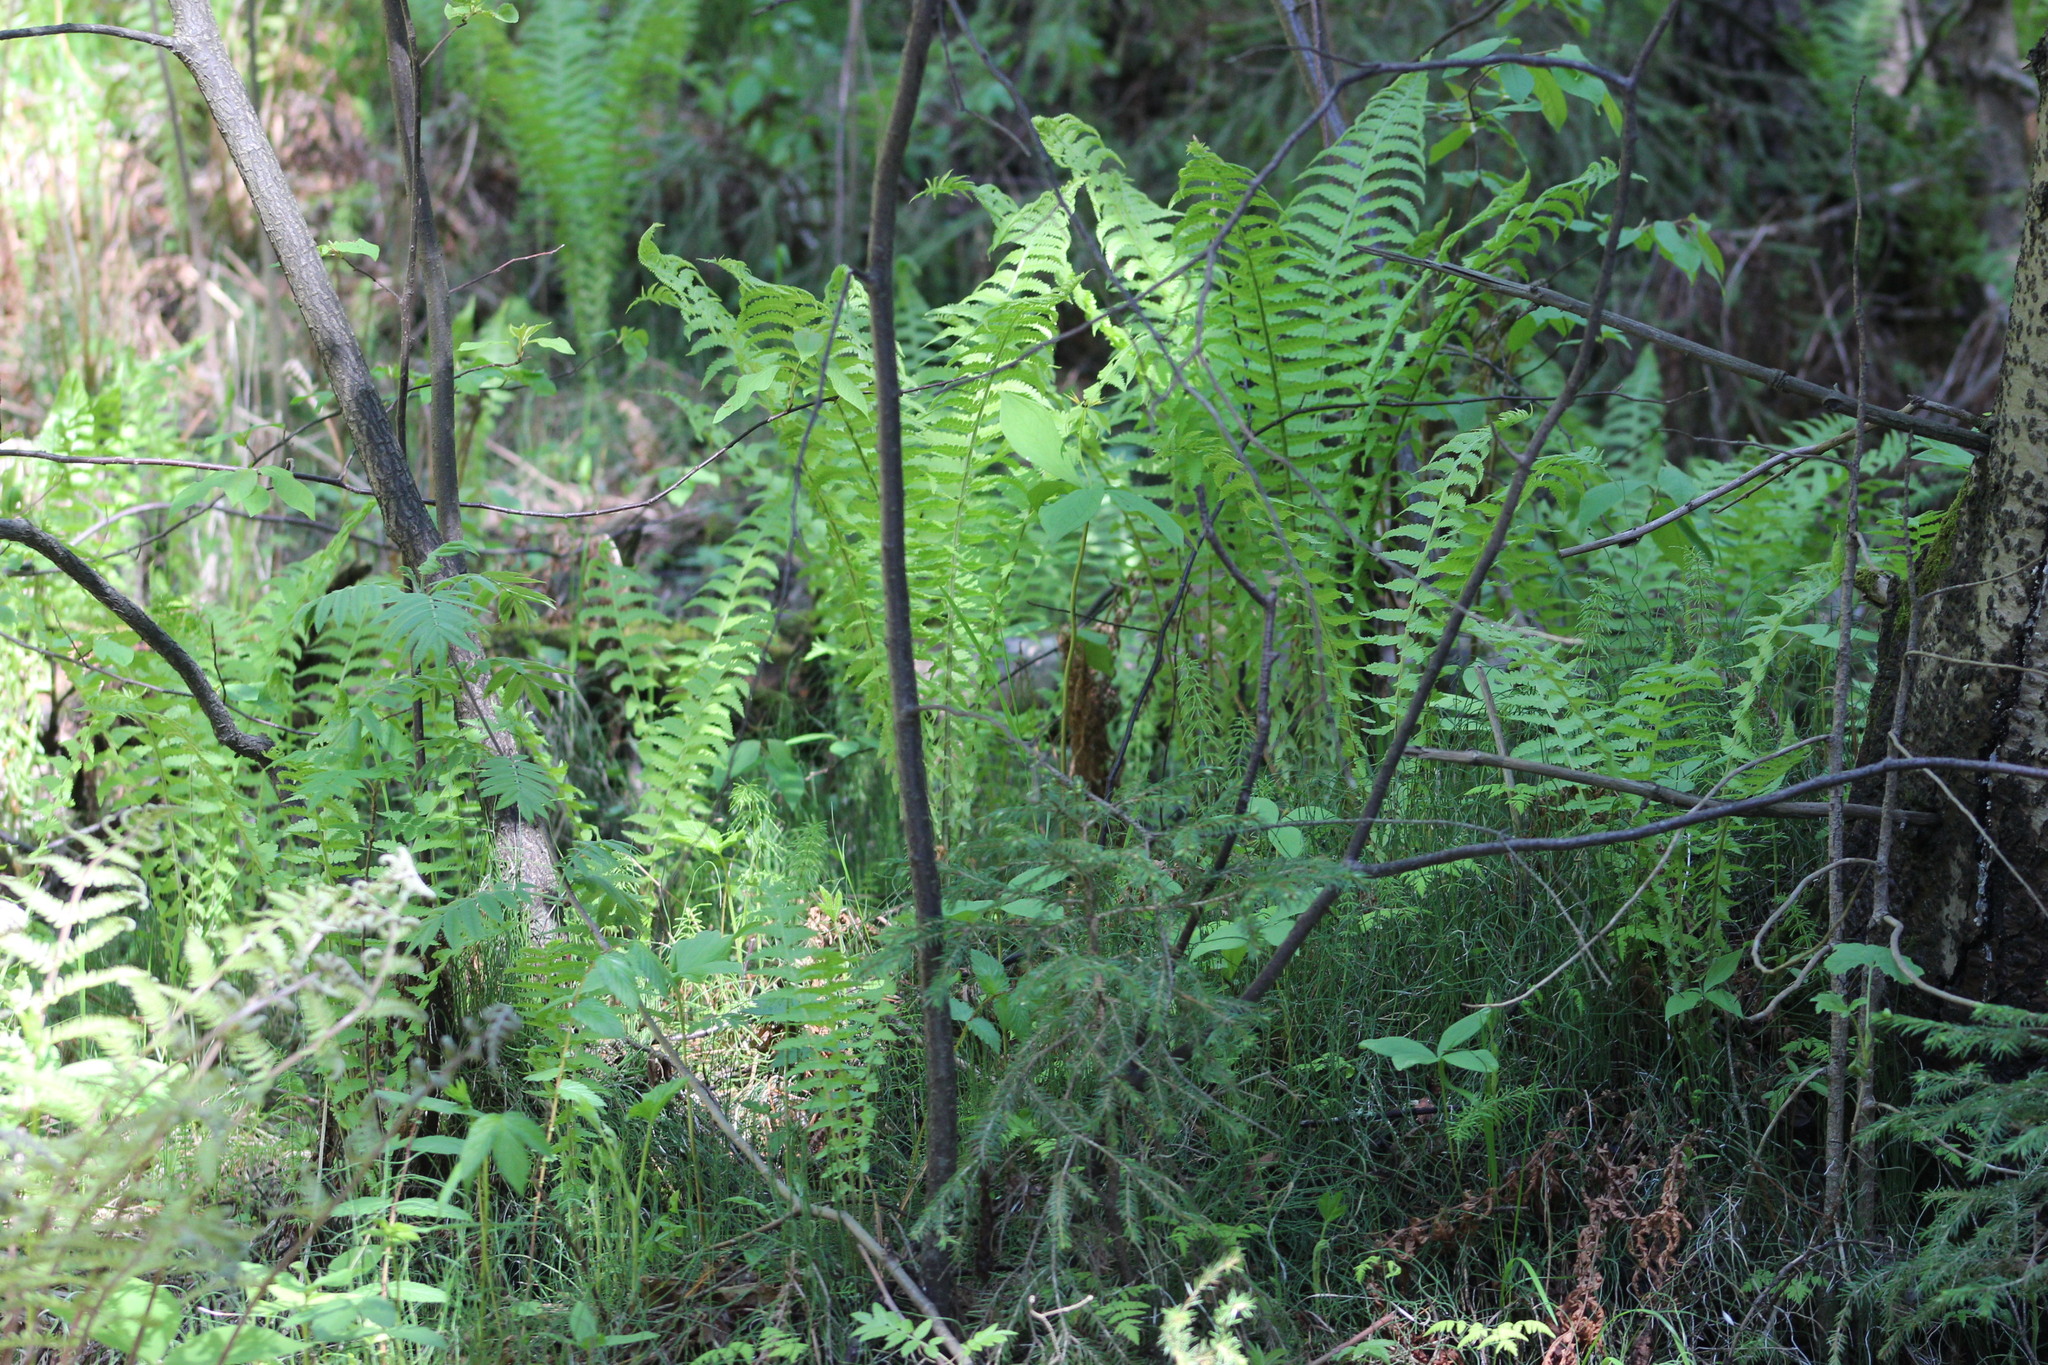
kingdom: Plantae
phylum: Tracheophyta
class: Polypodiopsida
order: Polypodiales
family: Onocleaceae
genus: Matteuccia
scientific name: Matteuccia struthiopteris
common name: Ostrich fern
